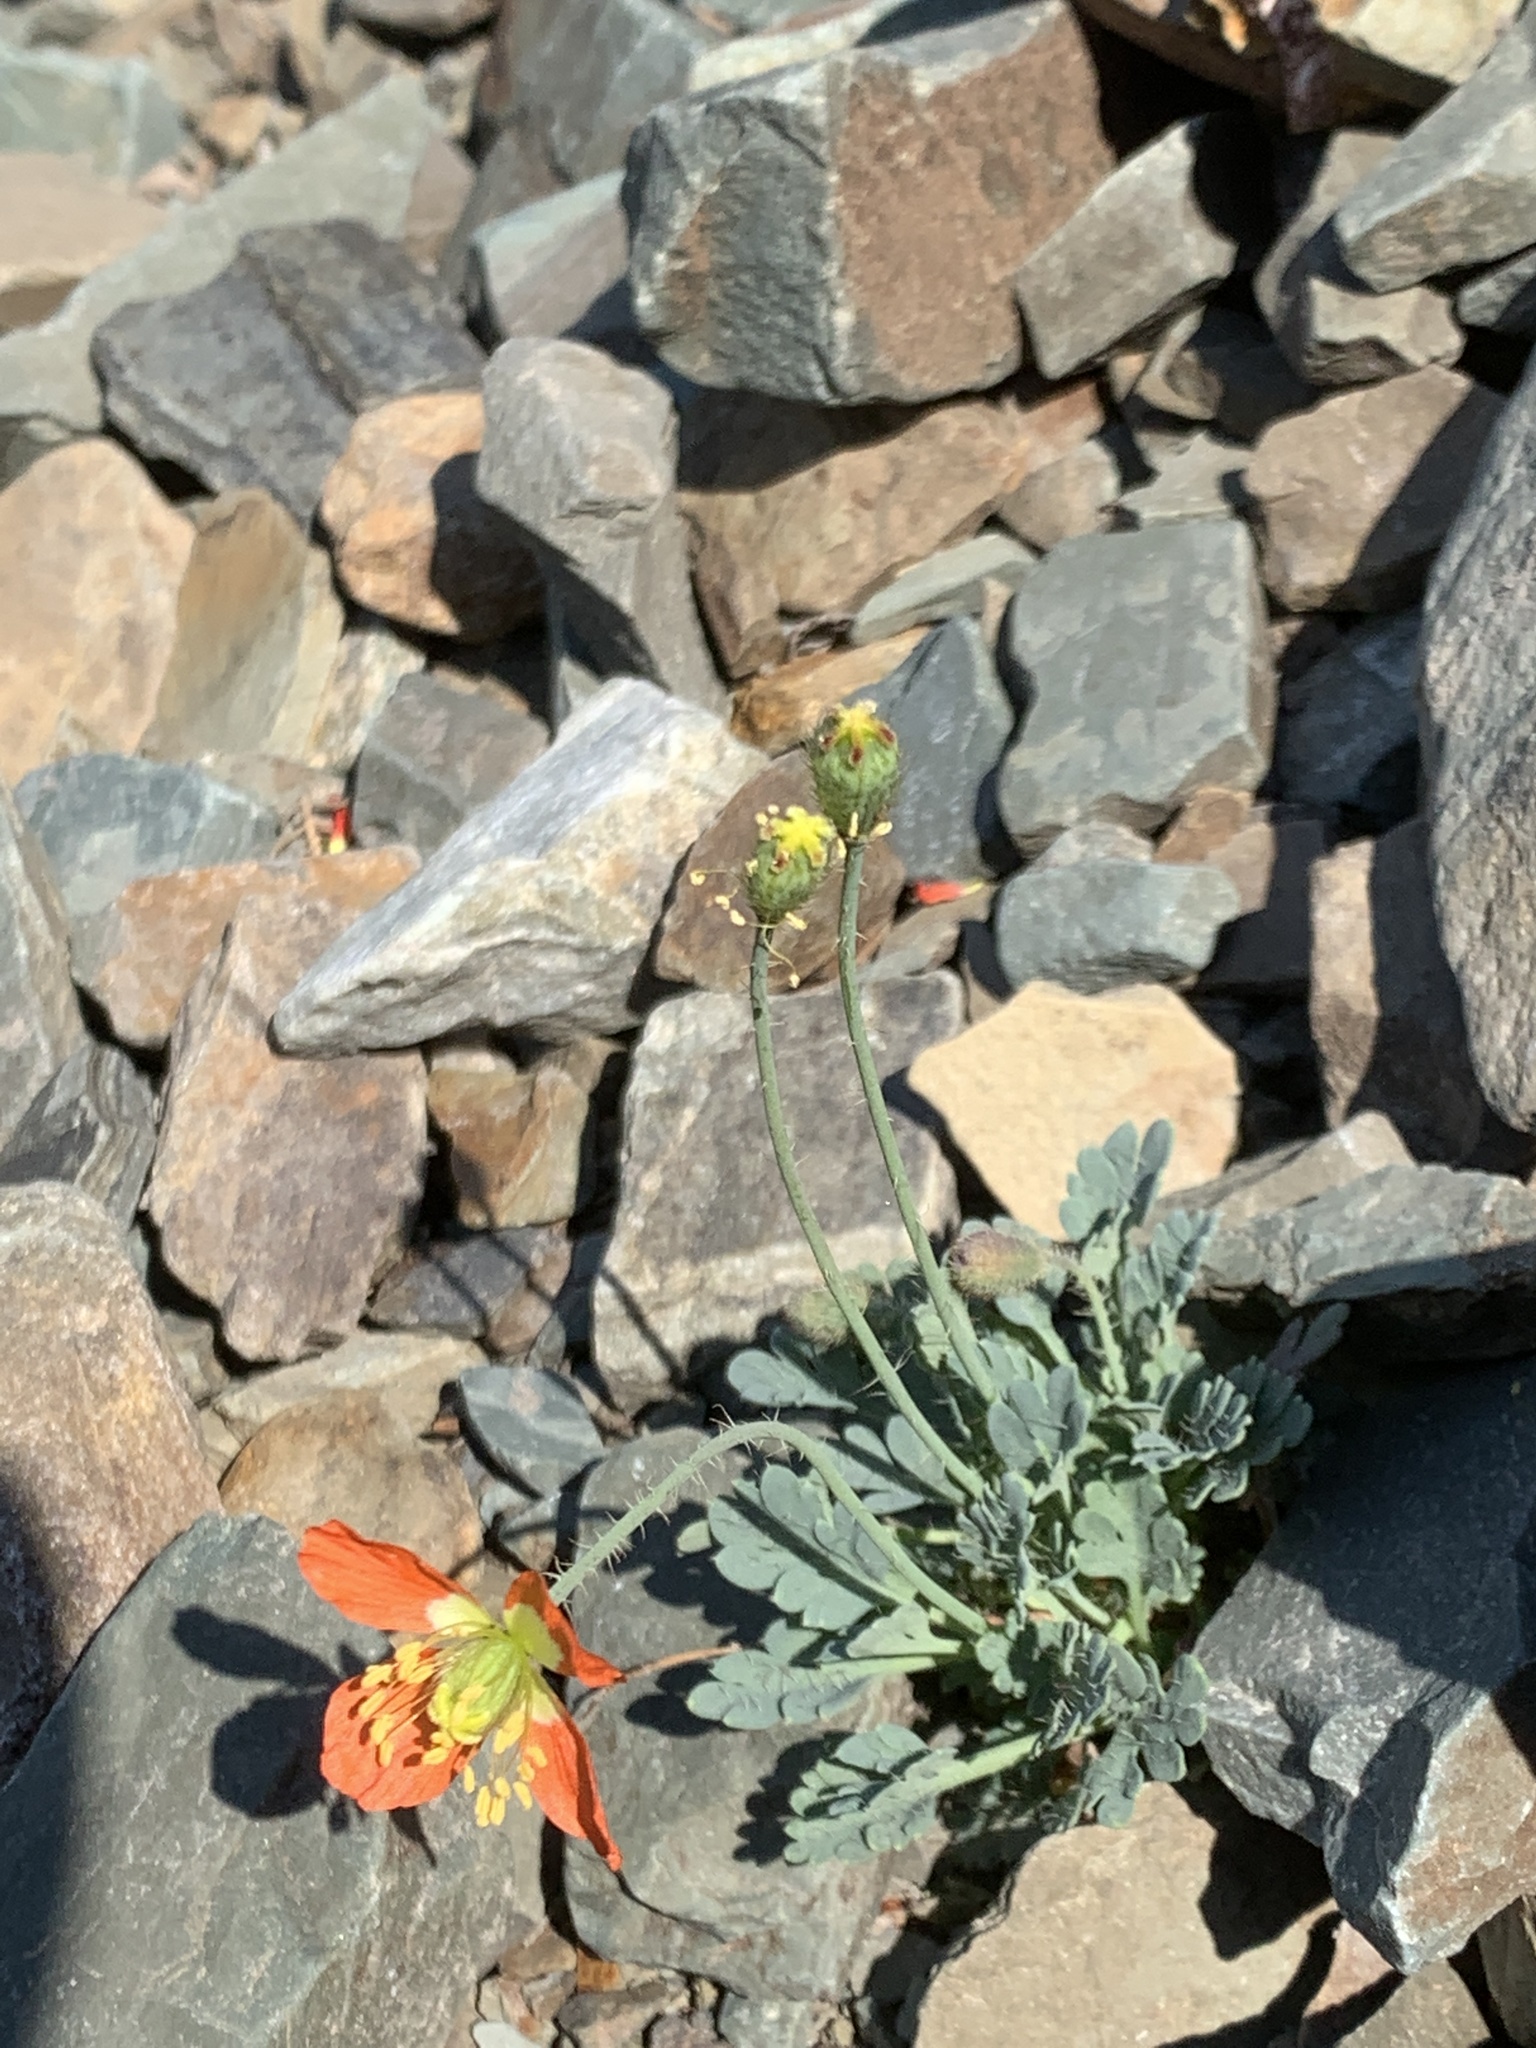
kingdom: Plantae
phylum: Tracheophyta
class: Magnoliopsida
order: Ranunculales
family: Papaveraceae
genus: Papaver
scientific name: Papaver pygmaeum
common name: Alpine glacier poppy
